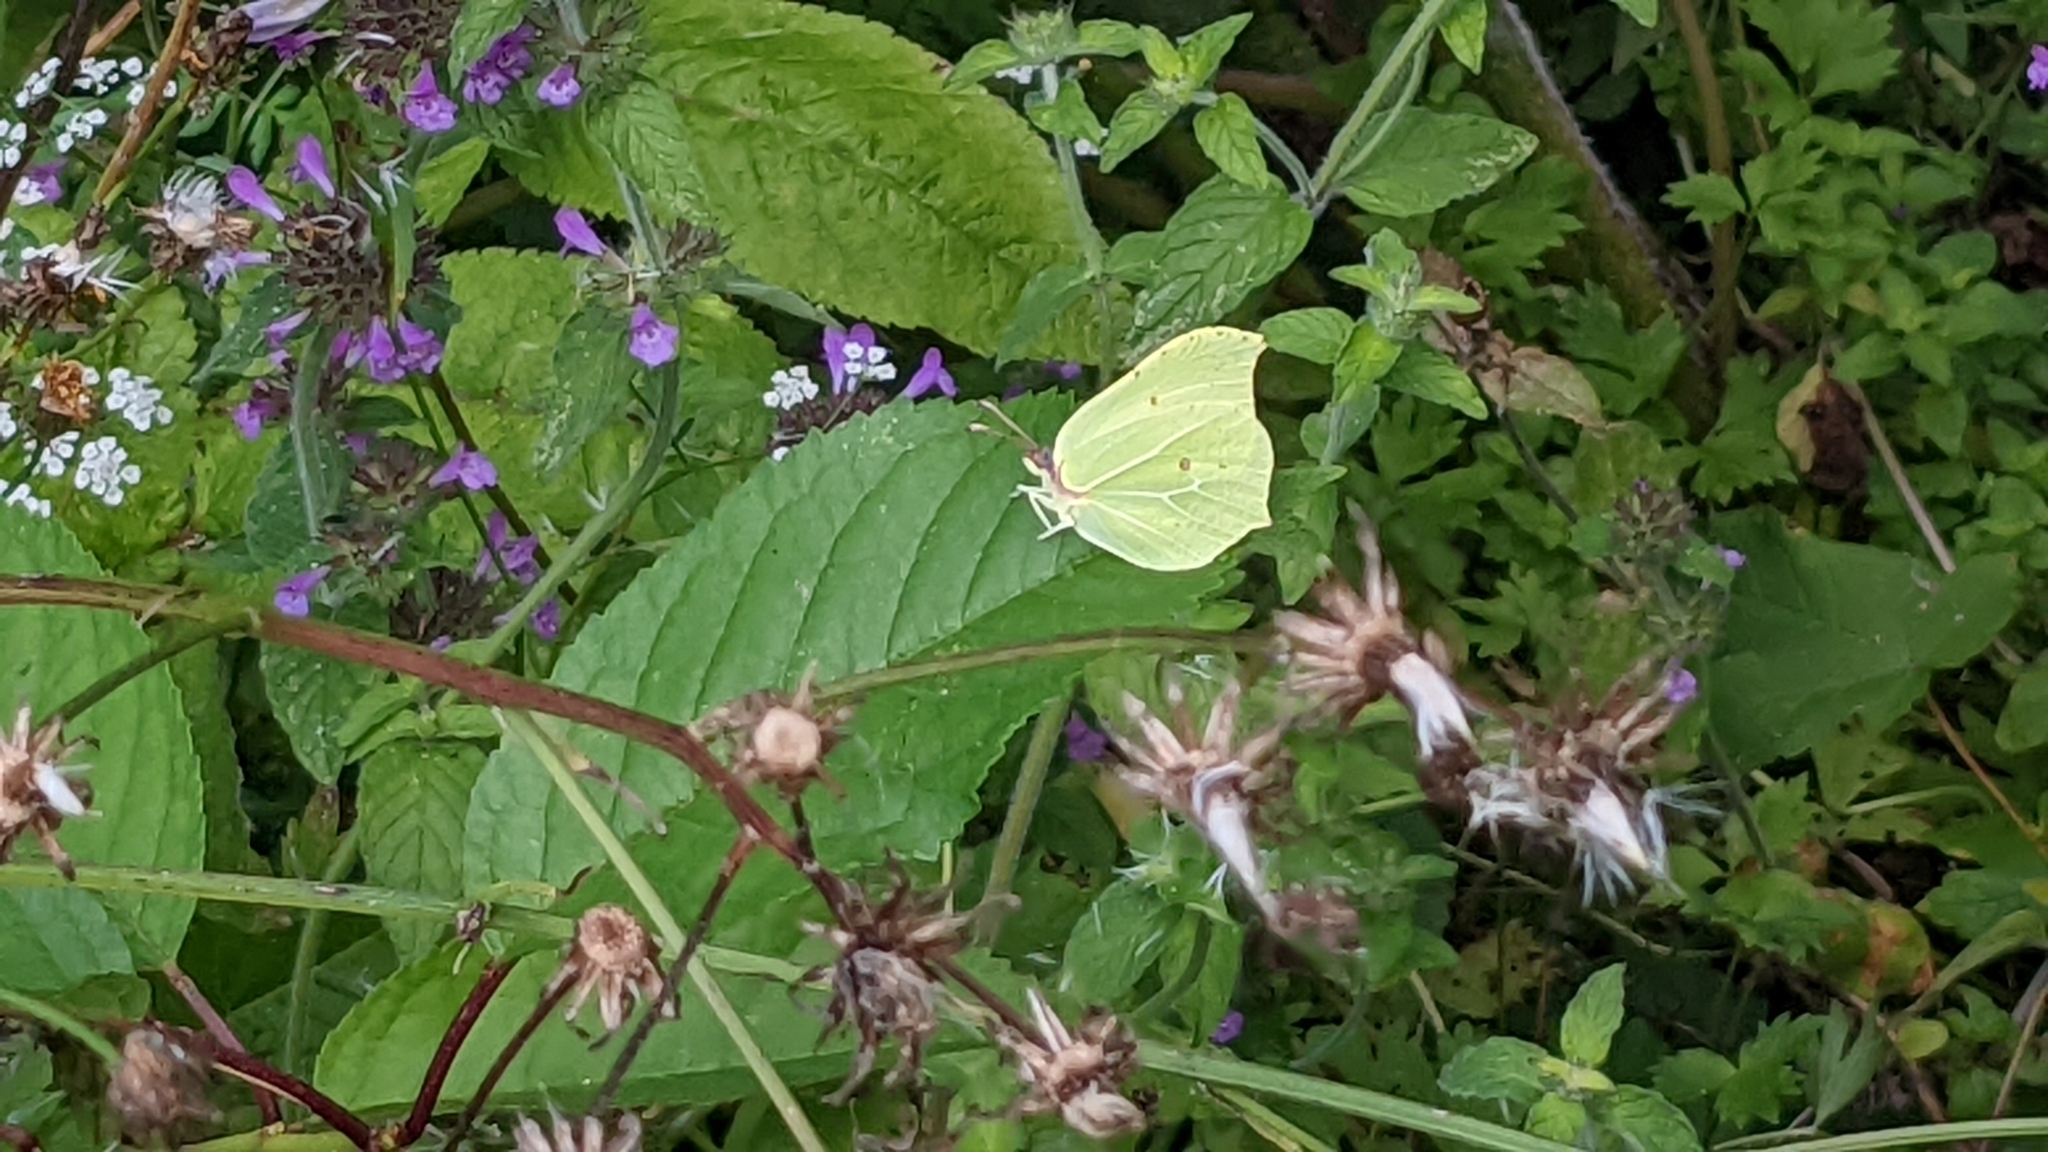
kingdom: Animalia
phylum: Arthropoda
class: Insecta
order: Lepidoptera
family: Pieridae
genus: Gonepteryx
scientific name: Gonepteryx rhamni
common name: Brimstone
